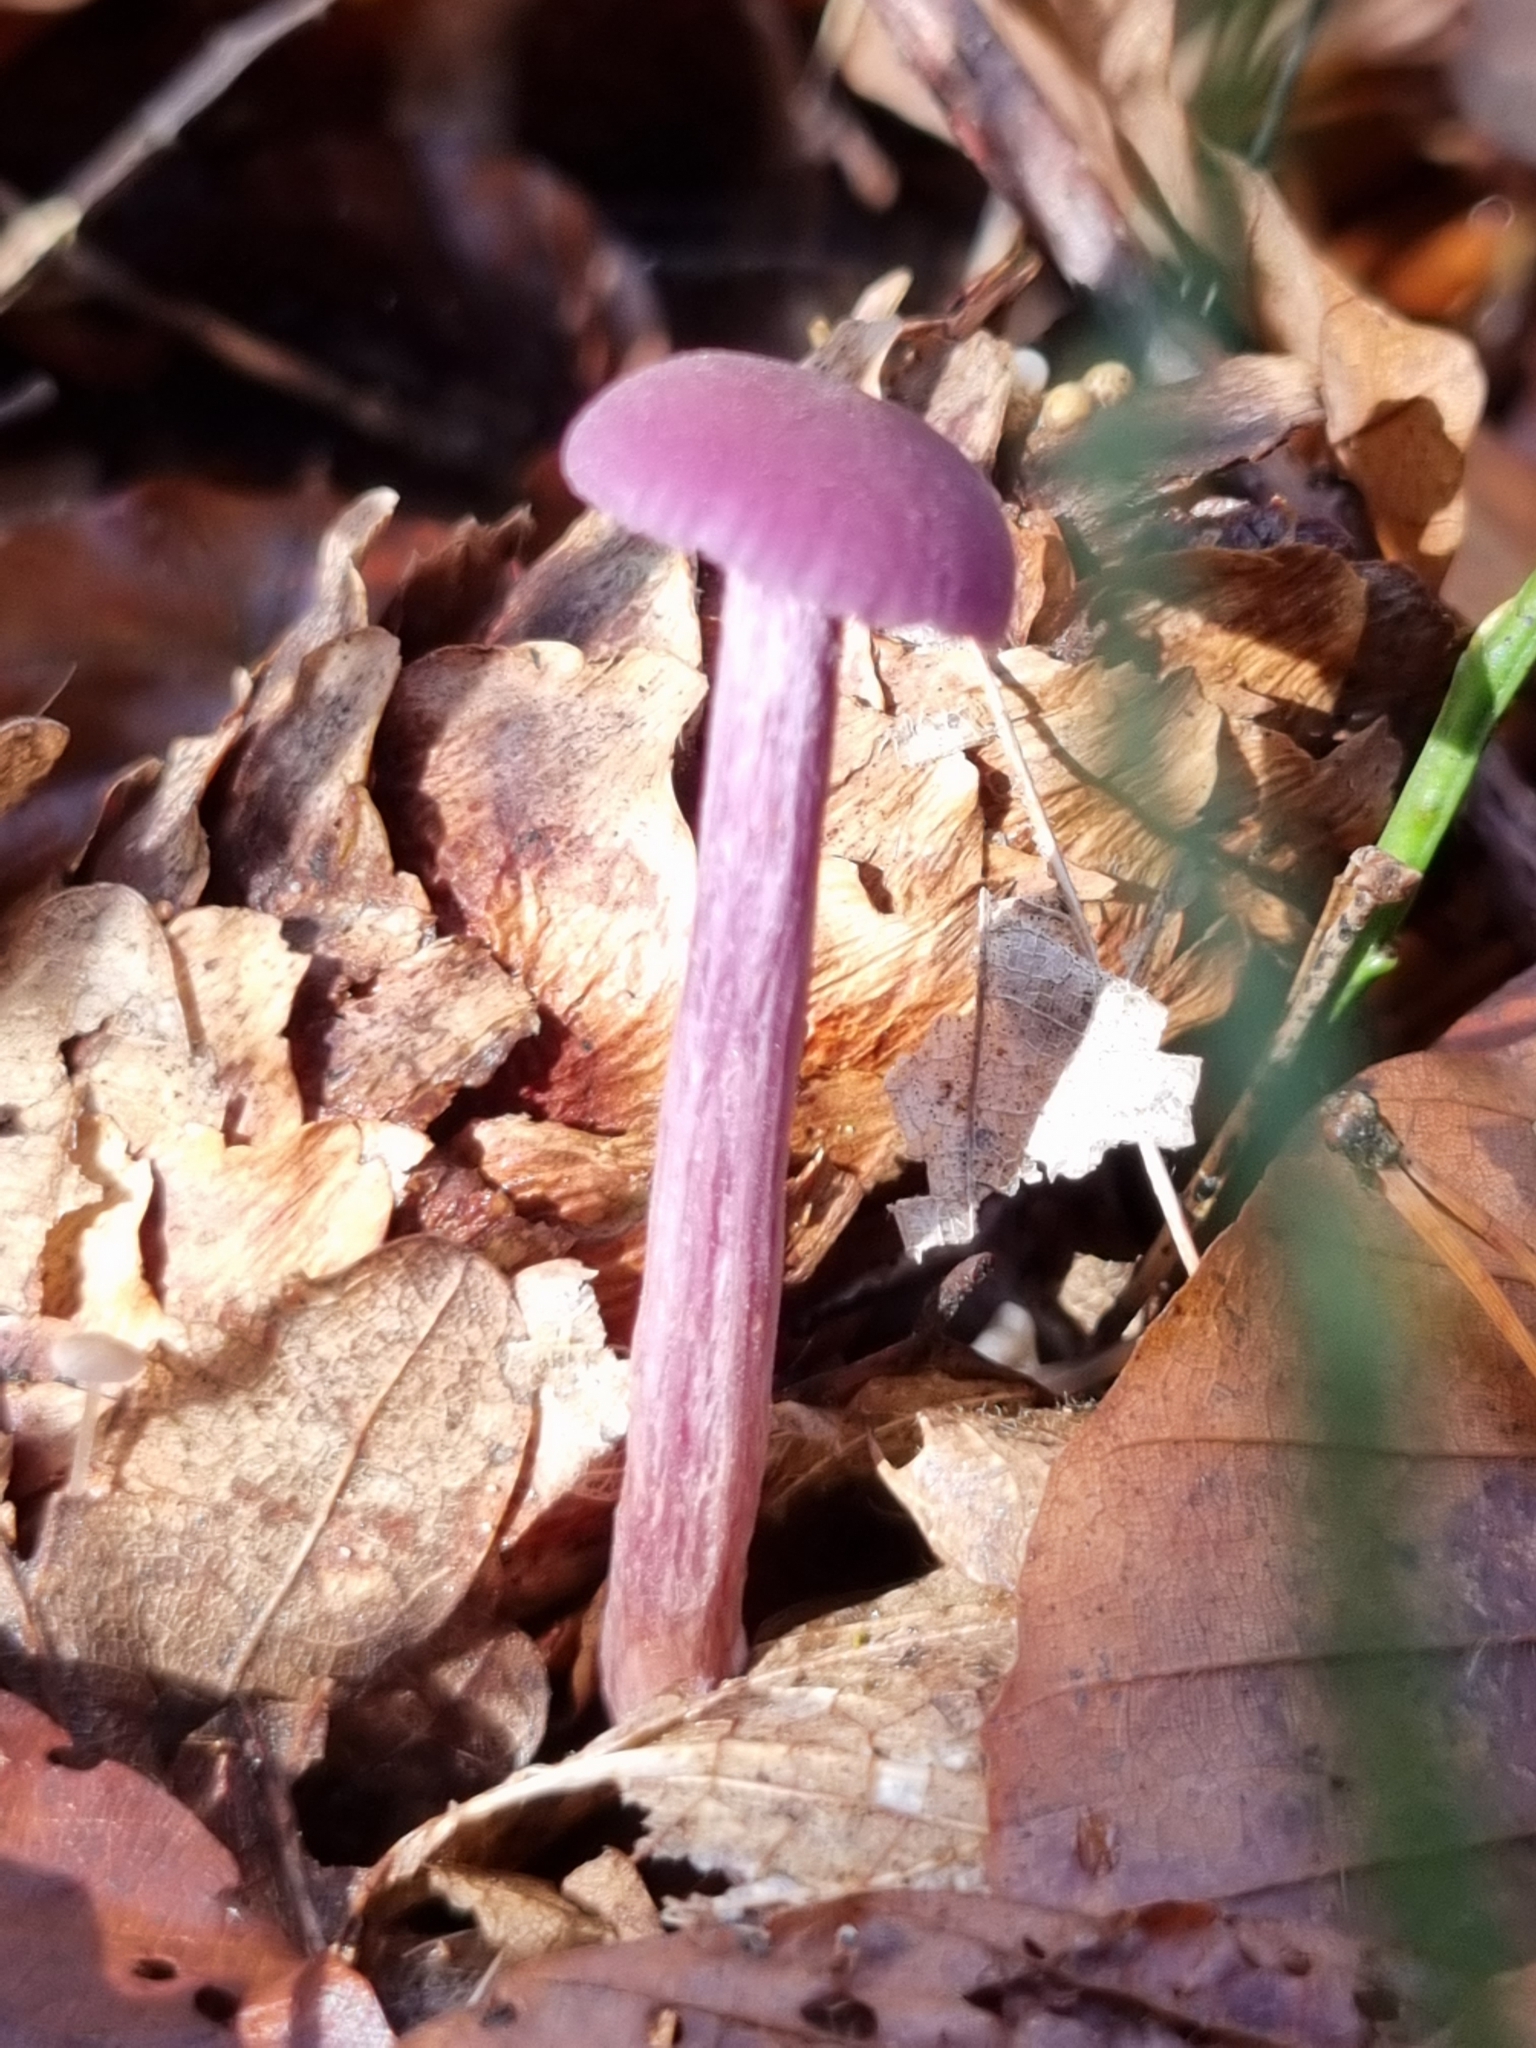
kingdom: Fungi
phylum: Basidiomycota
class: Agaricomycetes
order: Agaricales
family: Hydnangiaceae
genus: Laccaria
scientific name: Laccaria amethystina
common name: Amethyst deceiver
